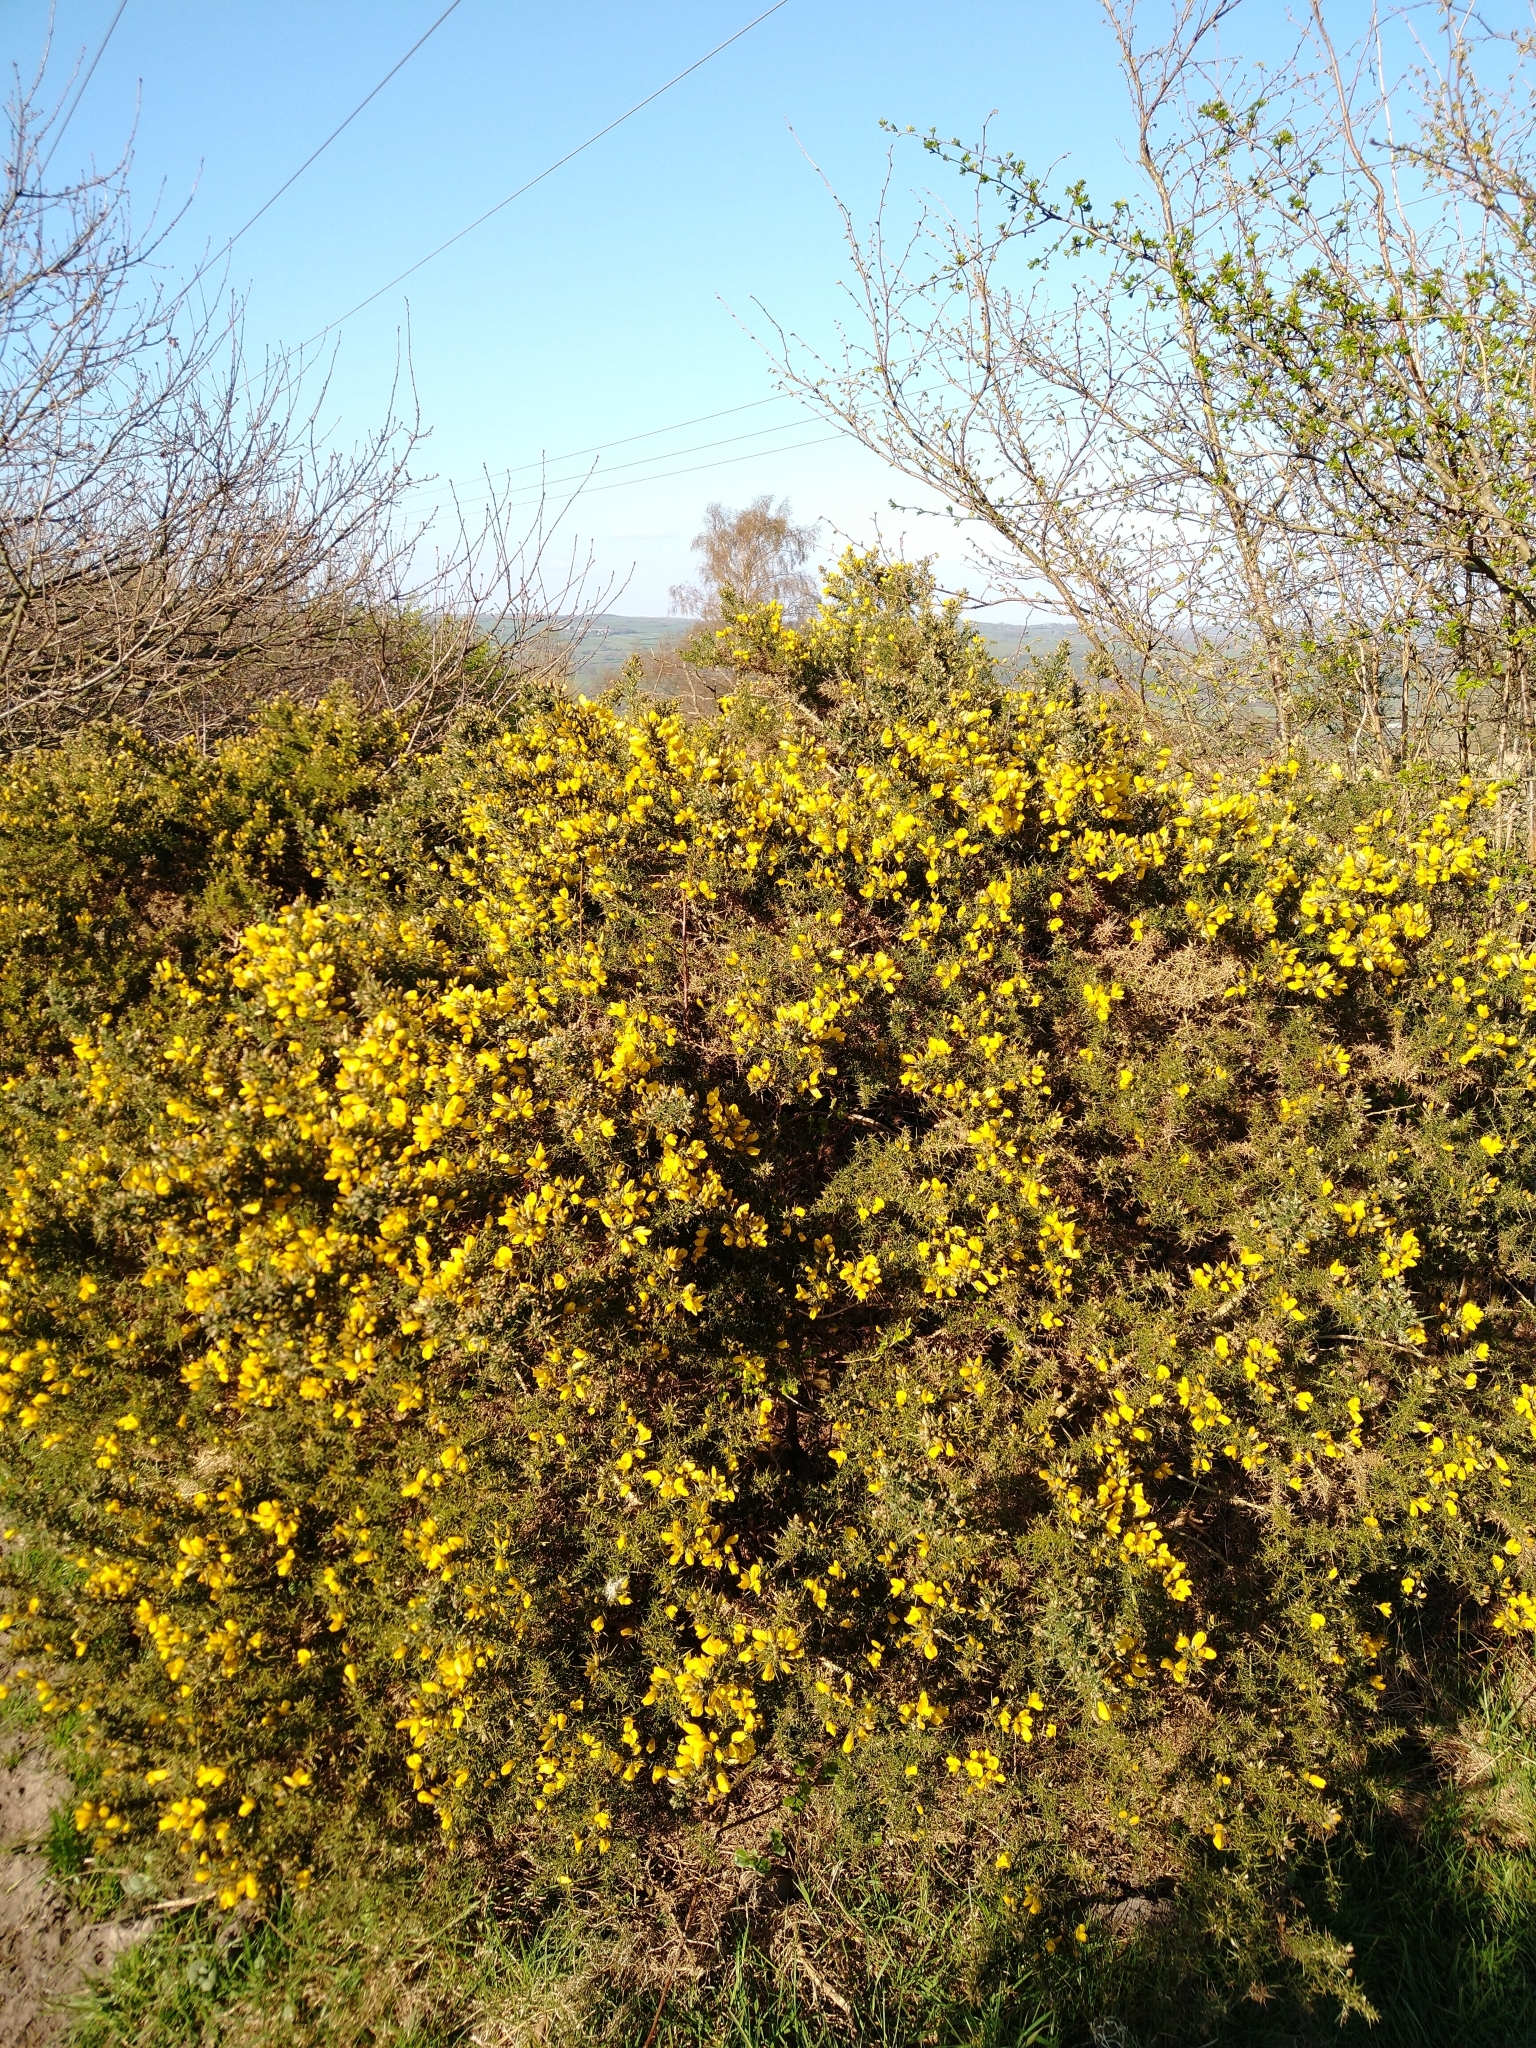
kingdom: Plantae
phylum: Tracheophyta
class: Magnoliopsida
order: Fabales
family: Fabaceae
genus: Ulex
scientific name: Ulex europaeus
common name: Common gorse
